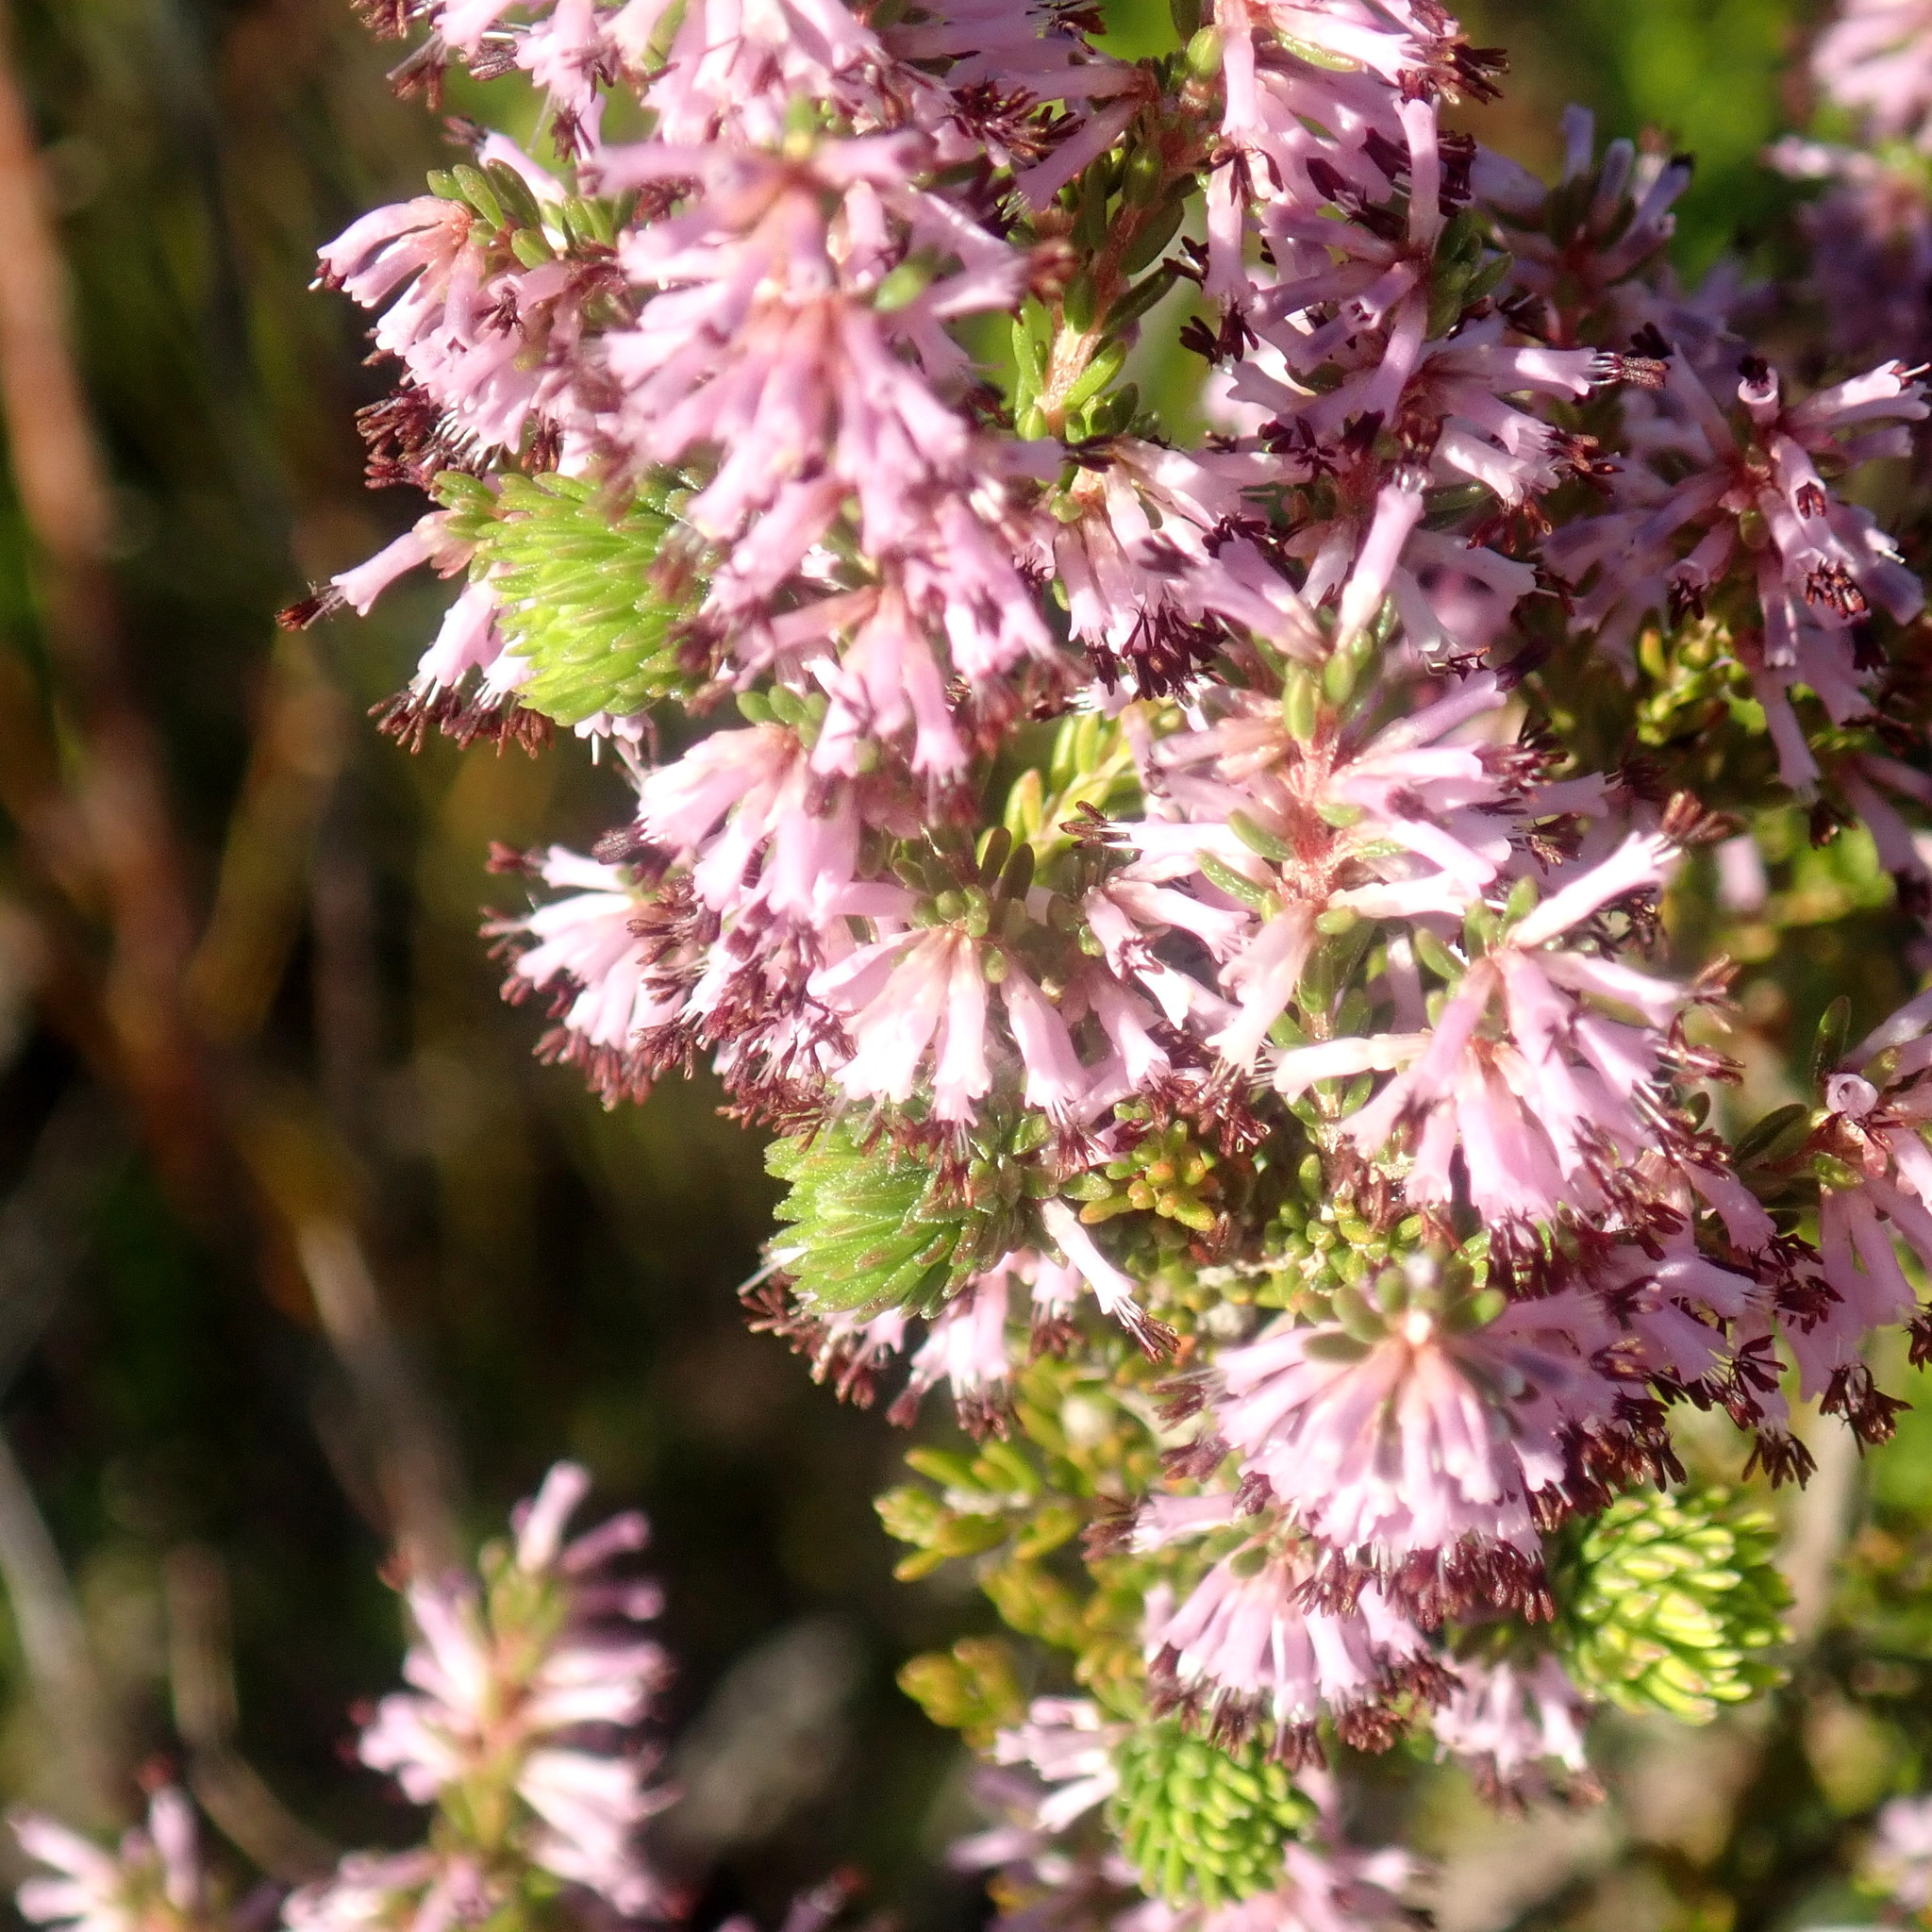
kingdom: Plantae
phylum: Tracheophyta
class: Magnoliopsida
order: Ericales
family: Ericaceae
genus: Erica
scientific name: Erica uberiflora
